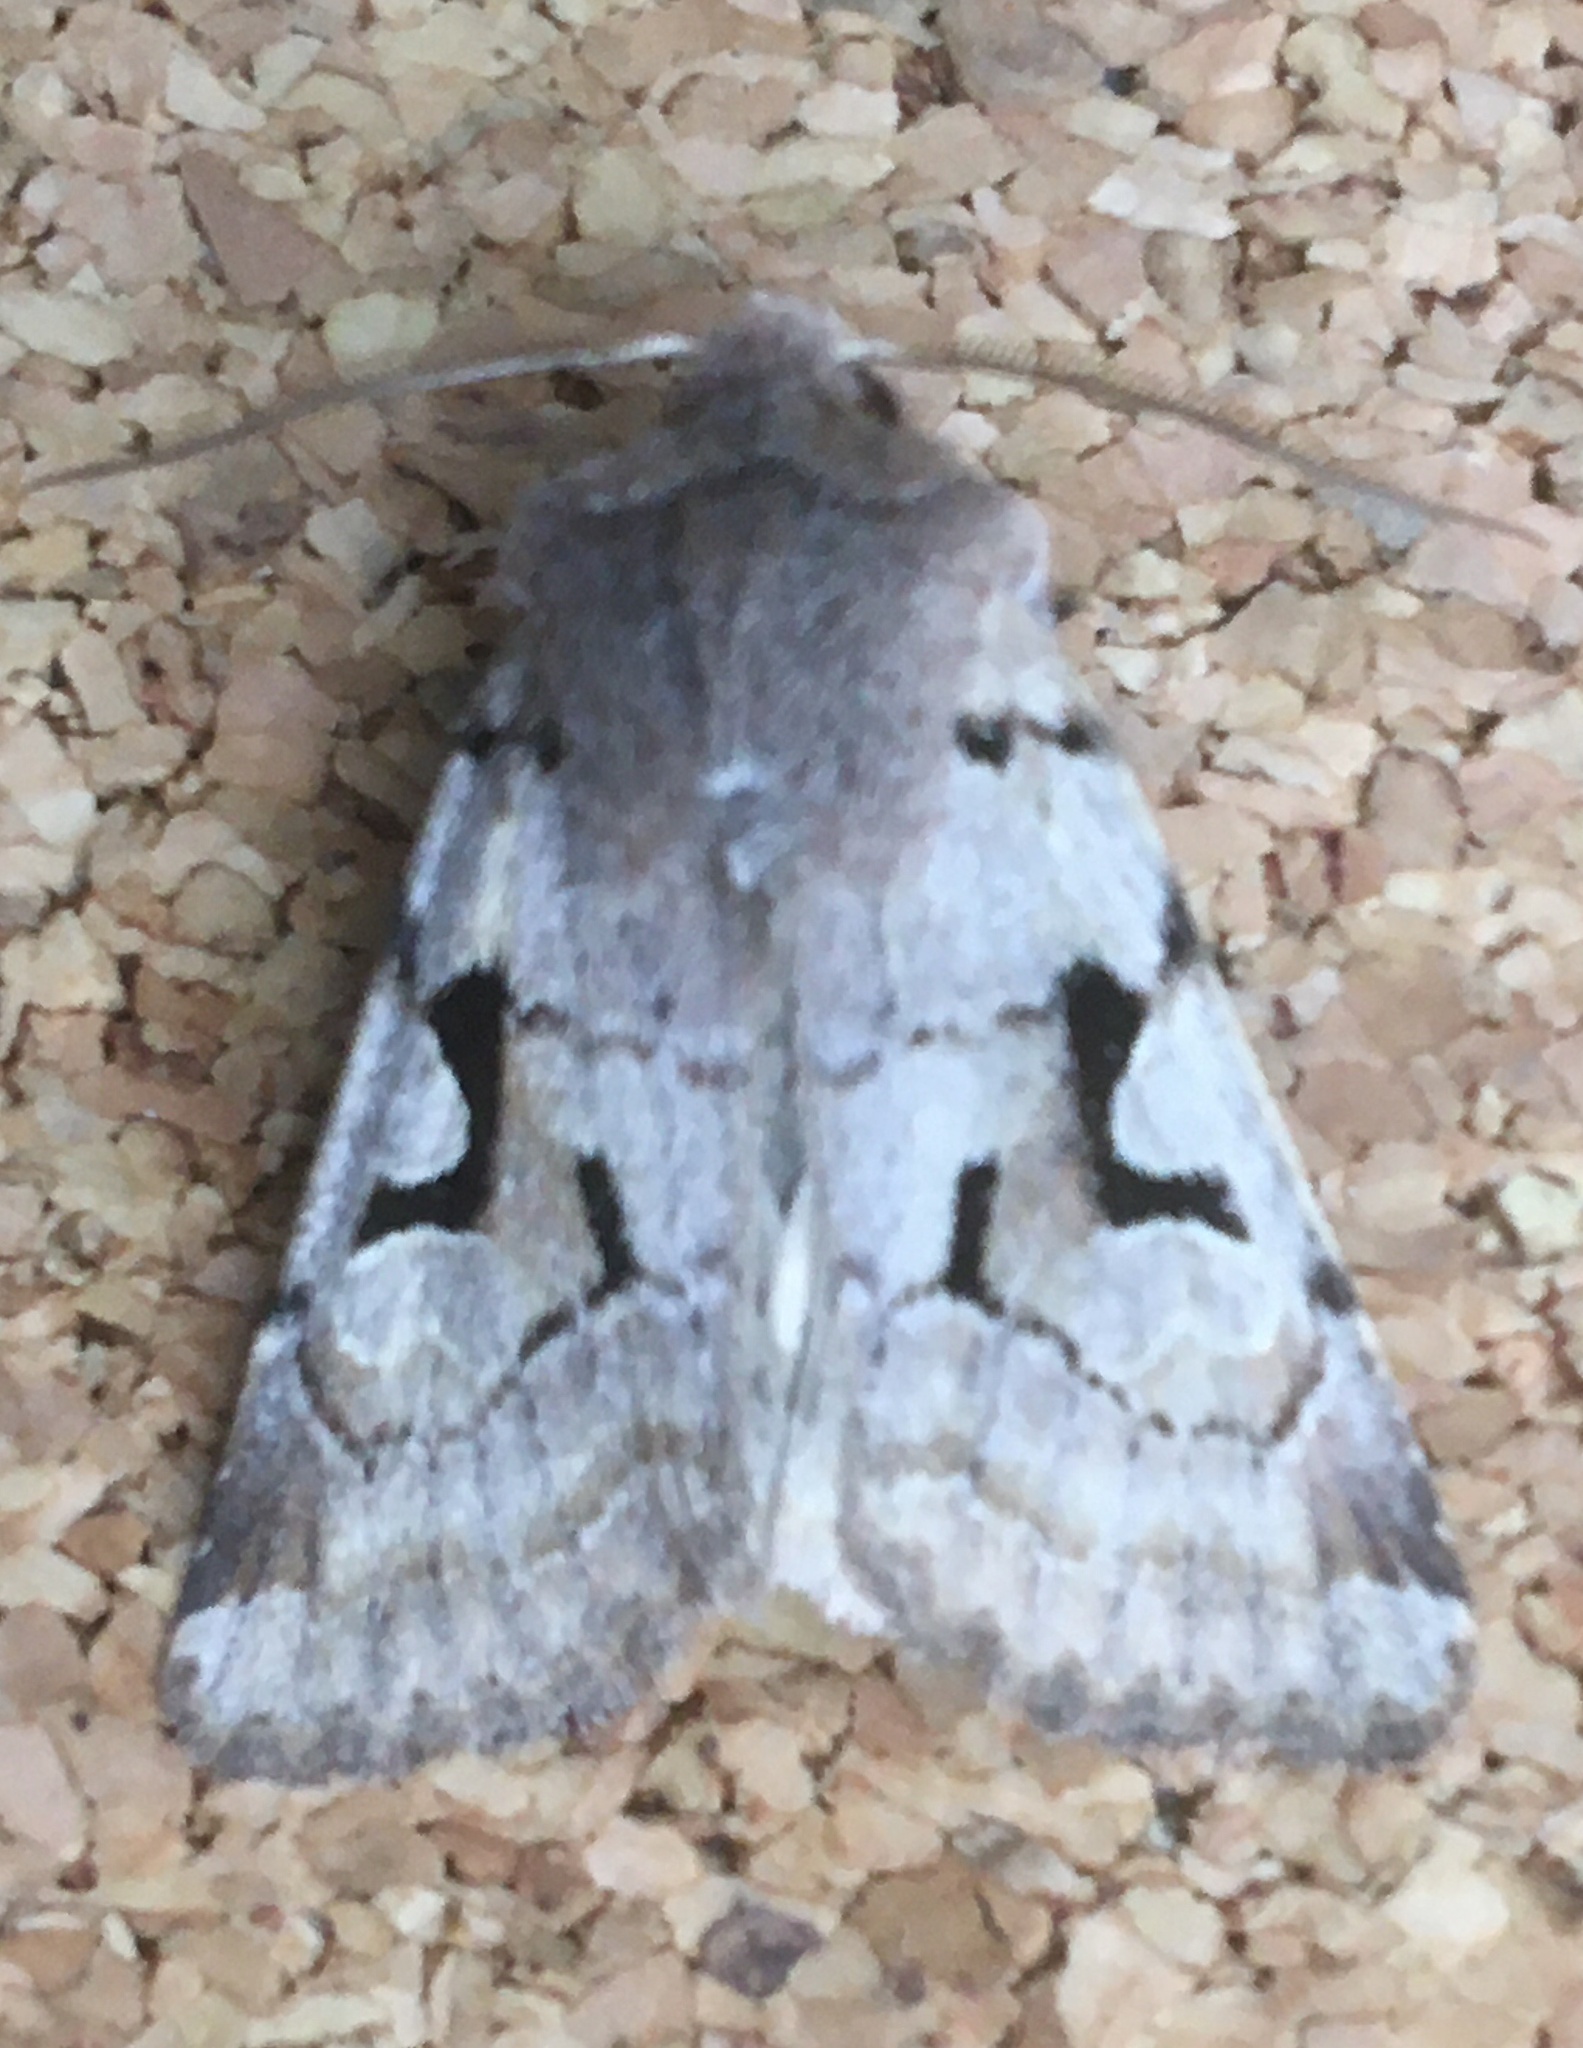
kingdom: Animalia
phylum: Arthropoda
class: Insecta
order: Lepidoptera
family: Noctuidae
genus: Orthosia
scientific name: Orthosia gothica
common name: Hebrew character
